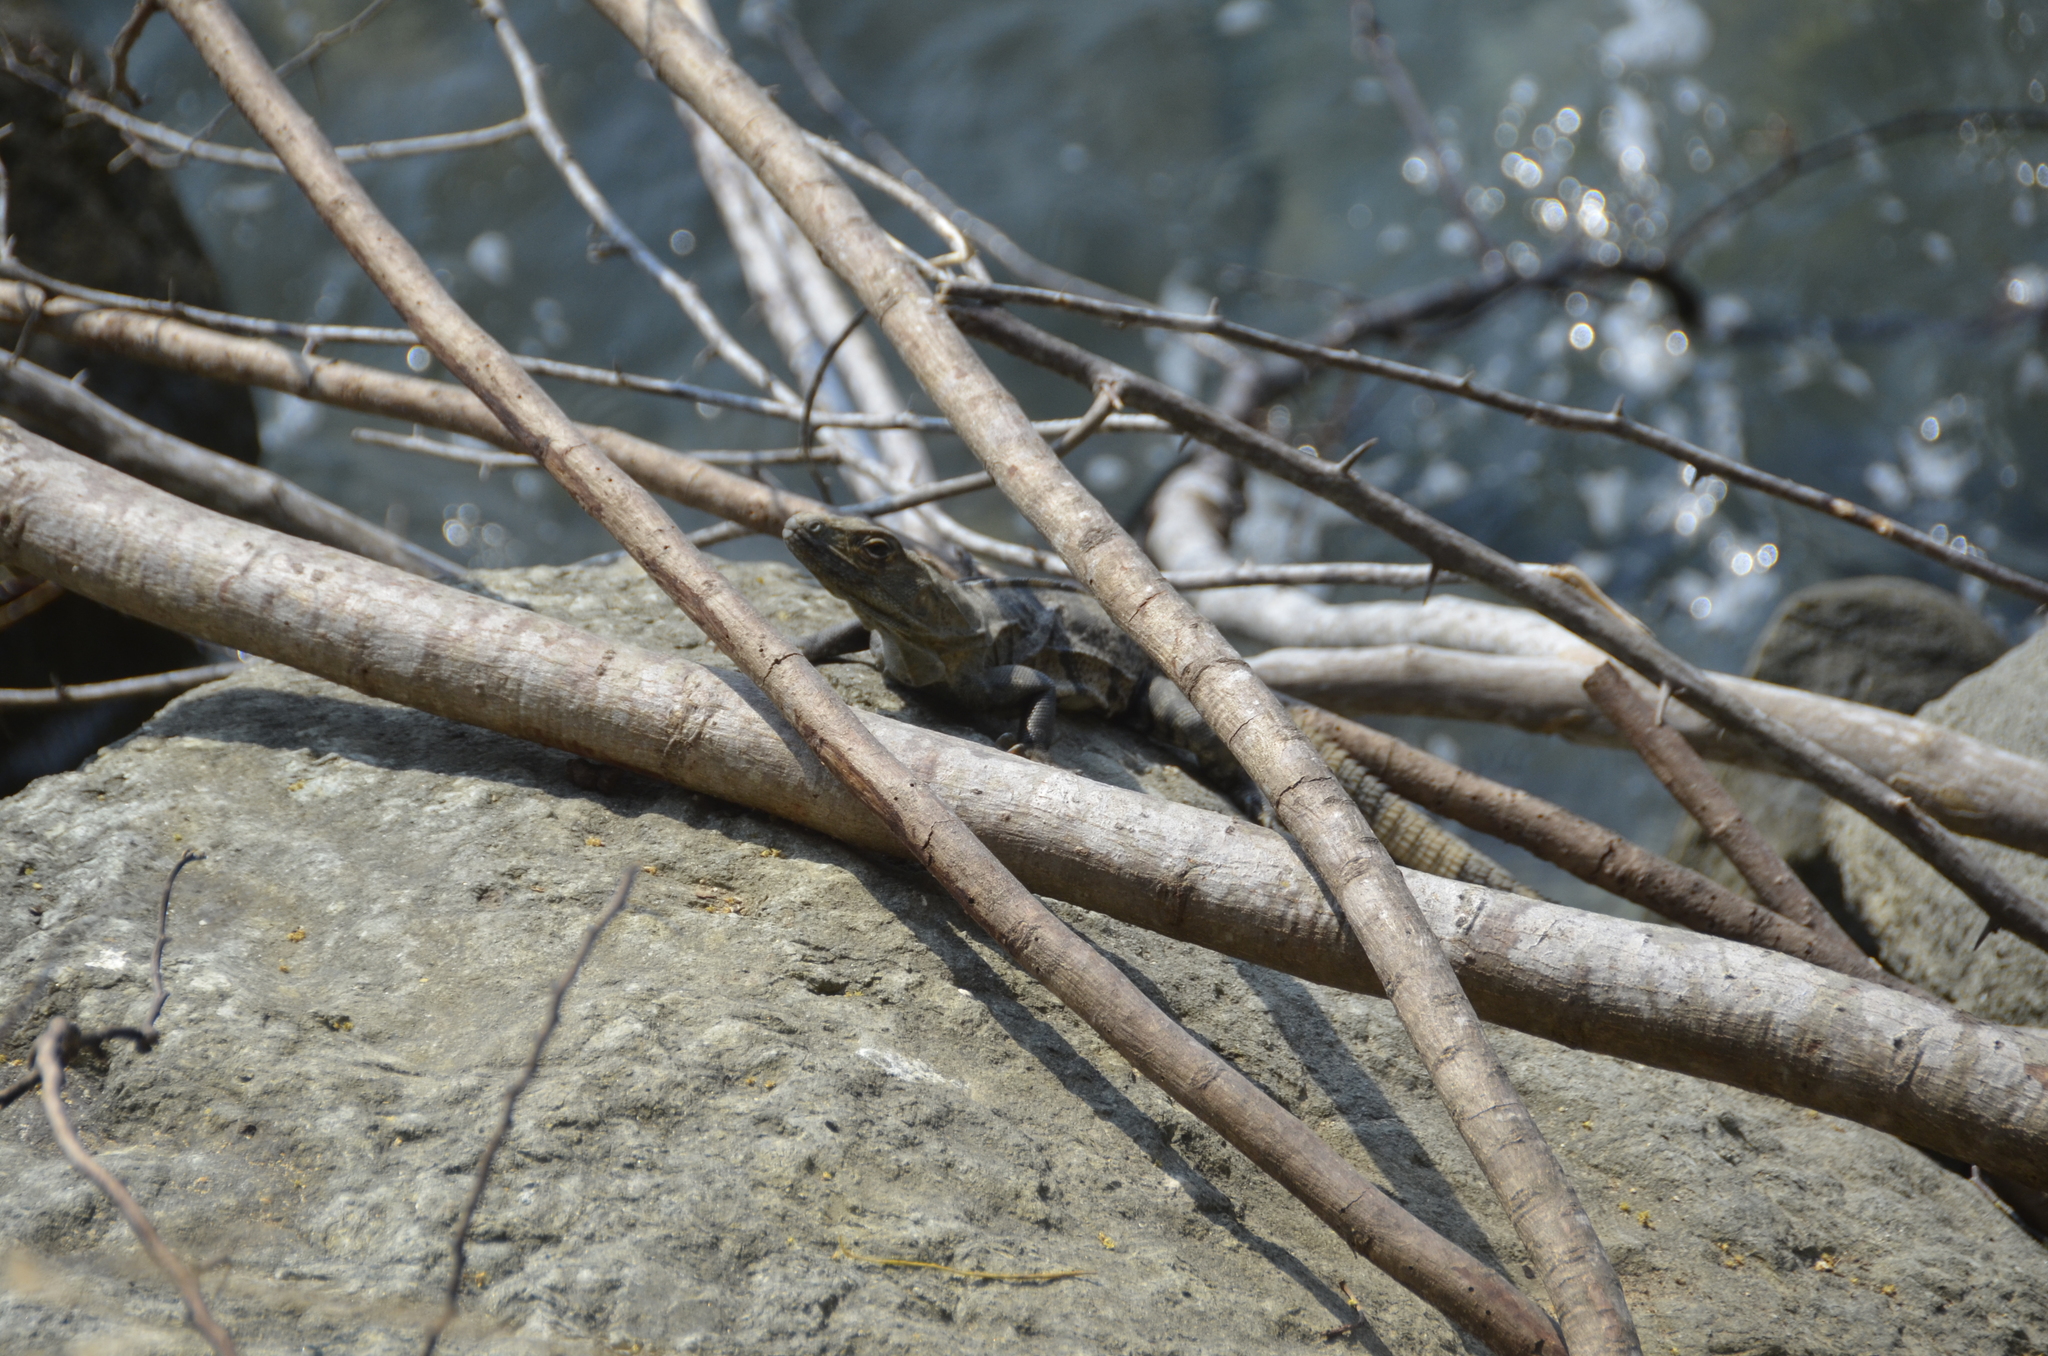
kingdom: Animalia
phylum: Chordata
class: Squamata
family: Iguanidae
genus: Ctenosaura
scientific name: Ctenosaura similis
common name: Black spiny-tailed iguana
